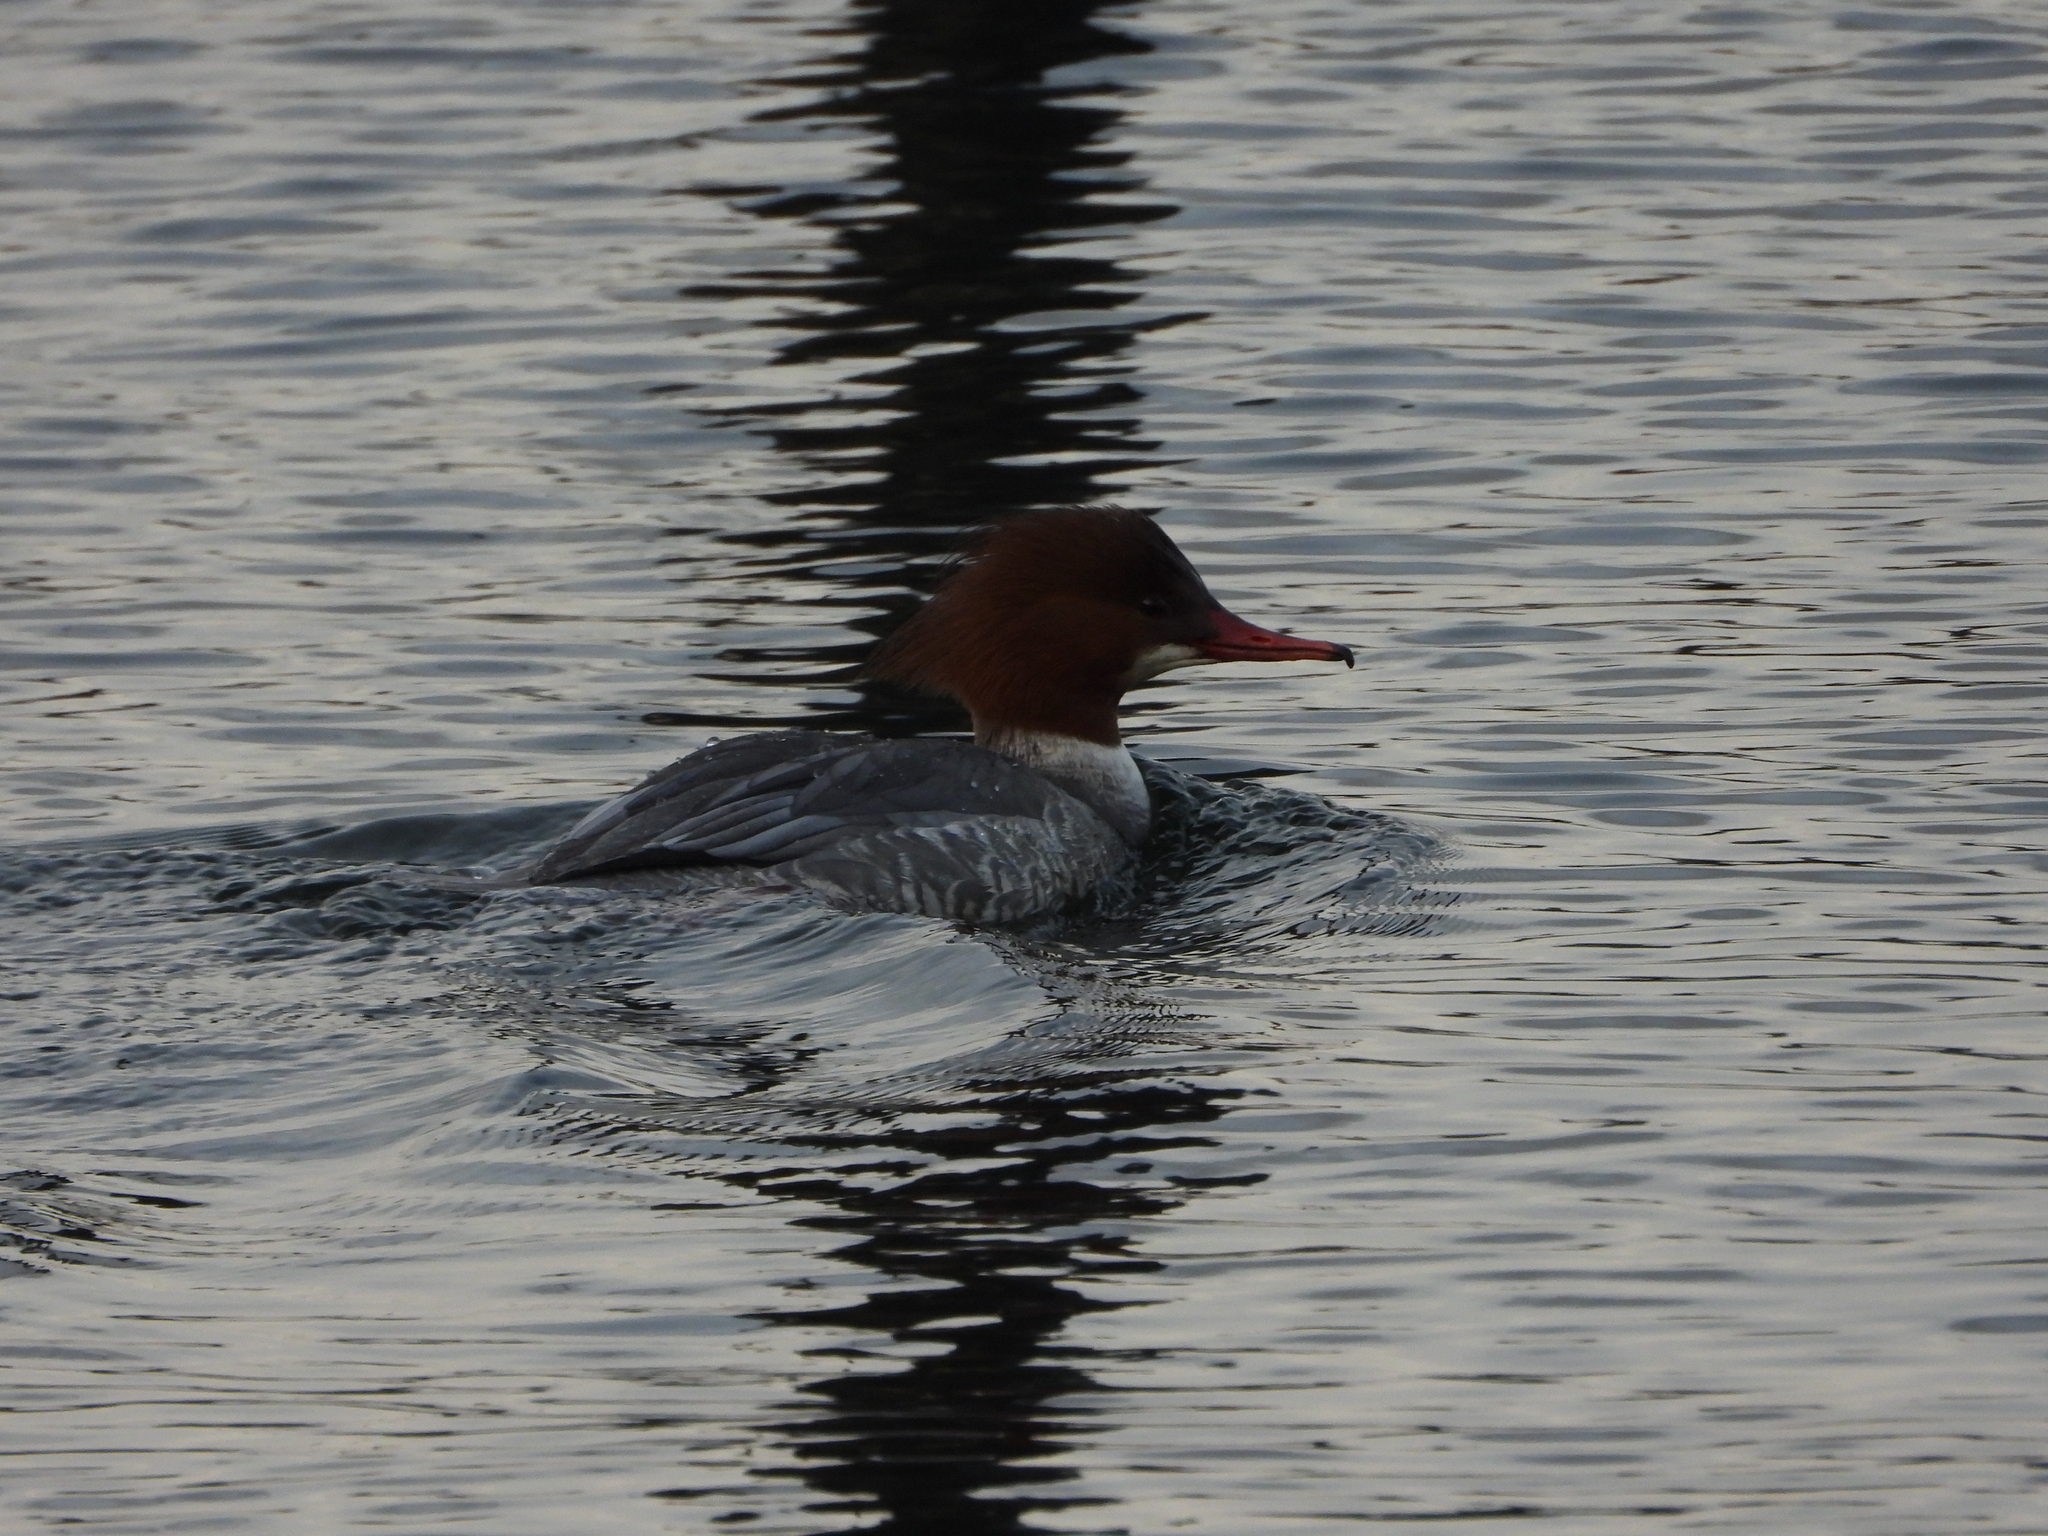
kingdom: Animalia
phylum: Chordata
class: Aves
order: Anseriformes
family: Anatidae
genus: Mergus
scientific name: Mergus merganser
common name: Common merganser
